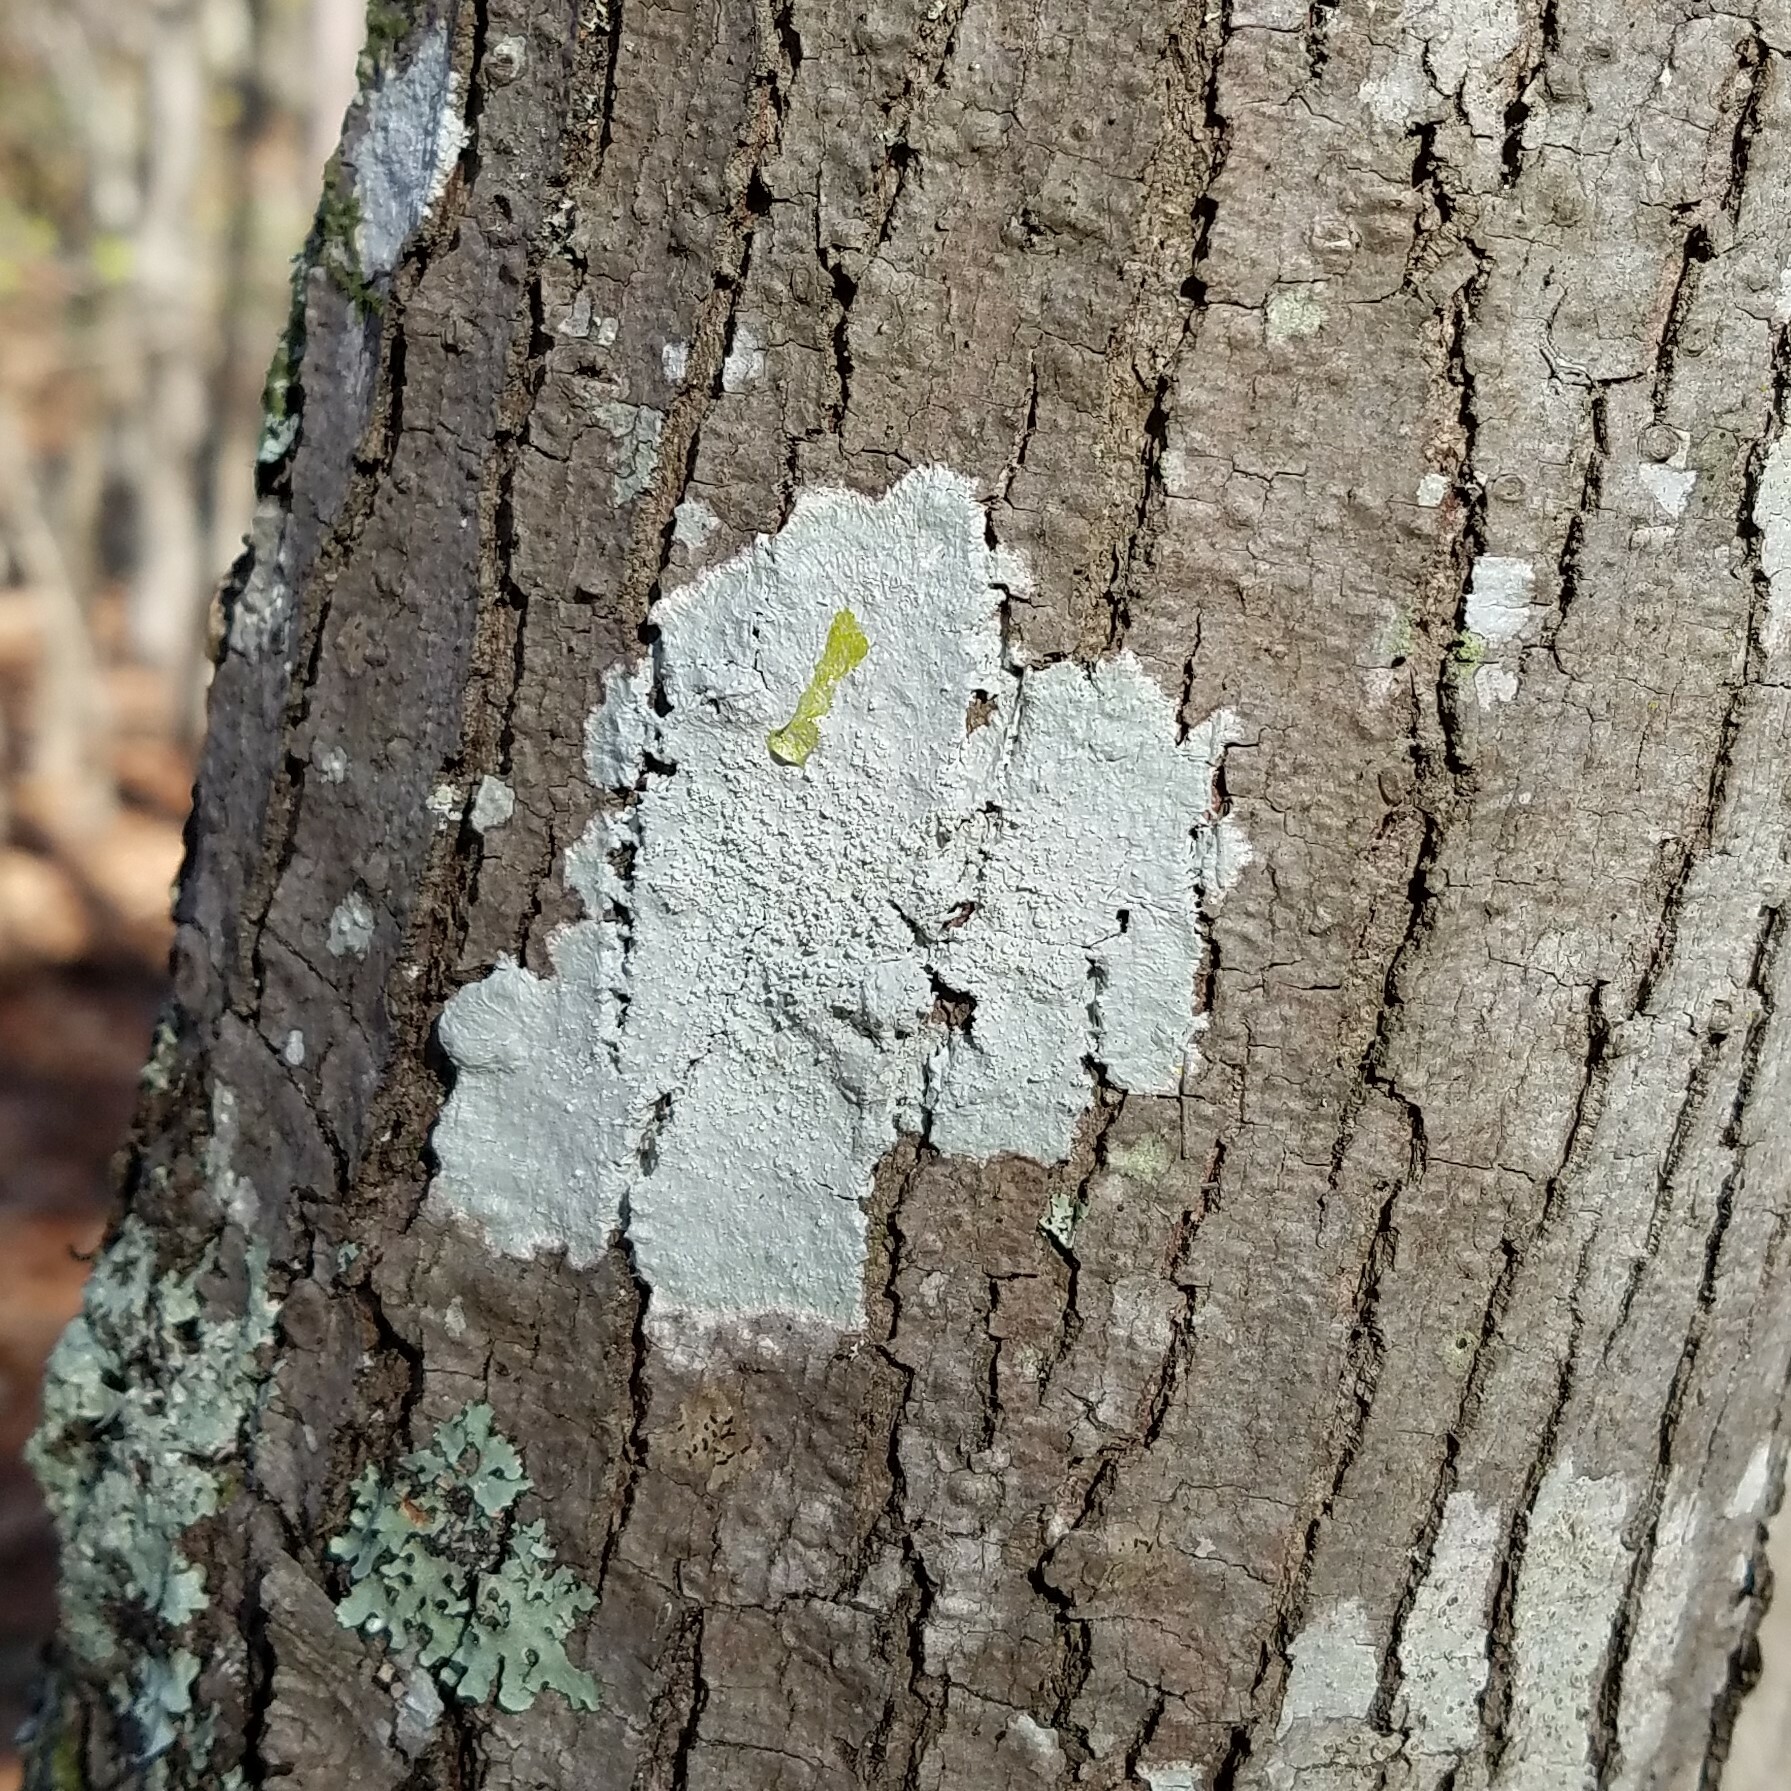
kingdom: Fungi
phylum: Ascomycota
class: Lecanoromycetes
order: Pertusariales
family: Pertusariaceae
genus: Lepra
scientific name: Lepra pustulata
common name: Pustule crust lichen
